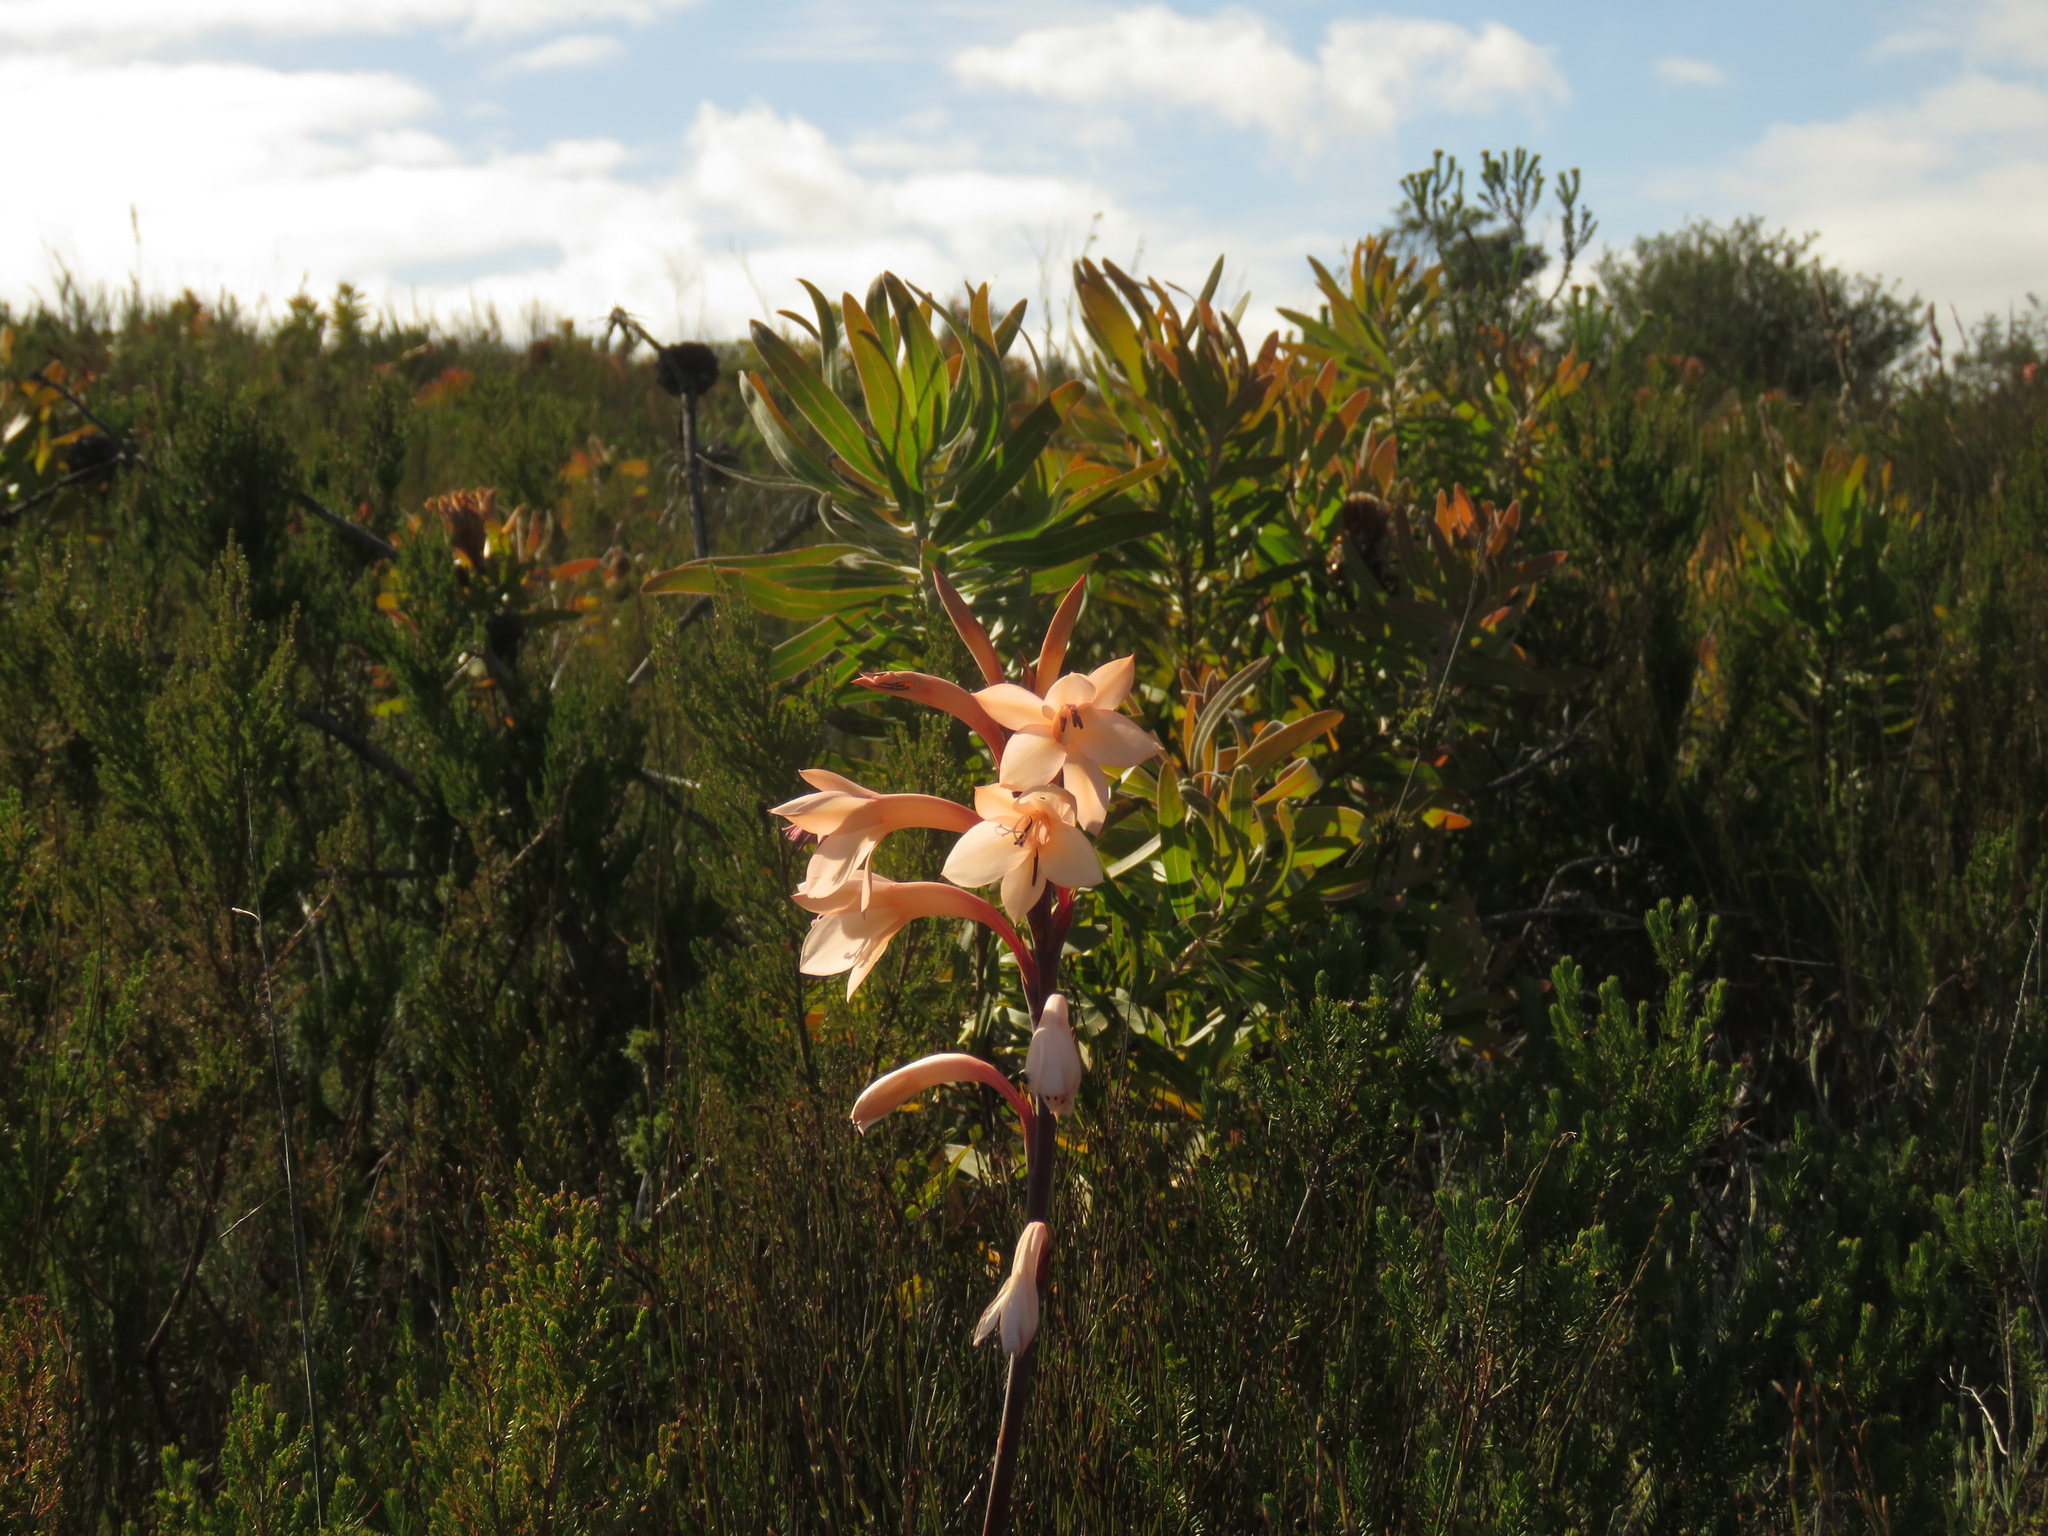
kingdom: Plantae
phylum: Tracheophyta
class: Liliopsida
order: Asparagales
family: Iridaceae
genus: Watsonia
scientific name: Watsonia fourcadei
